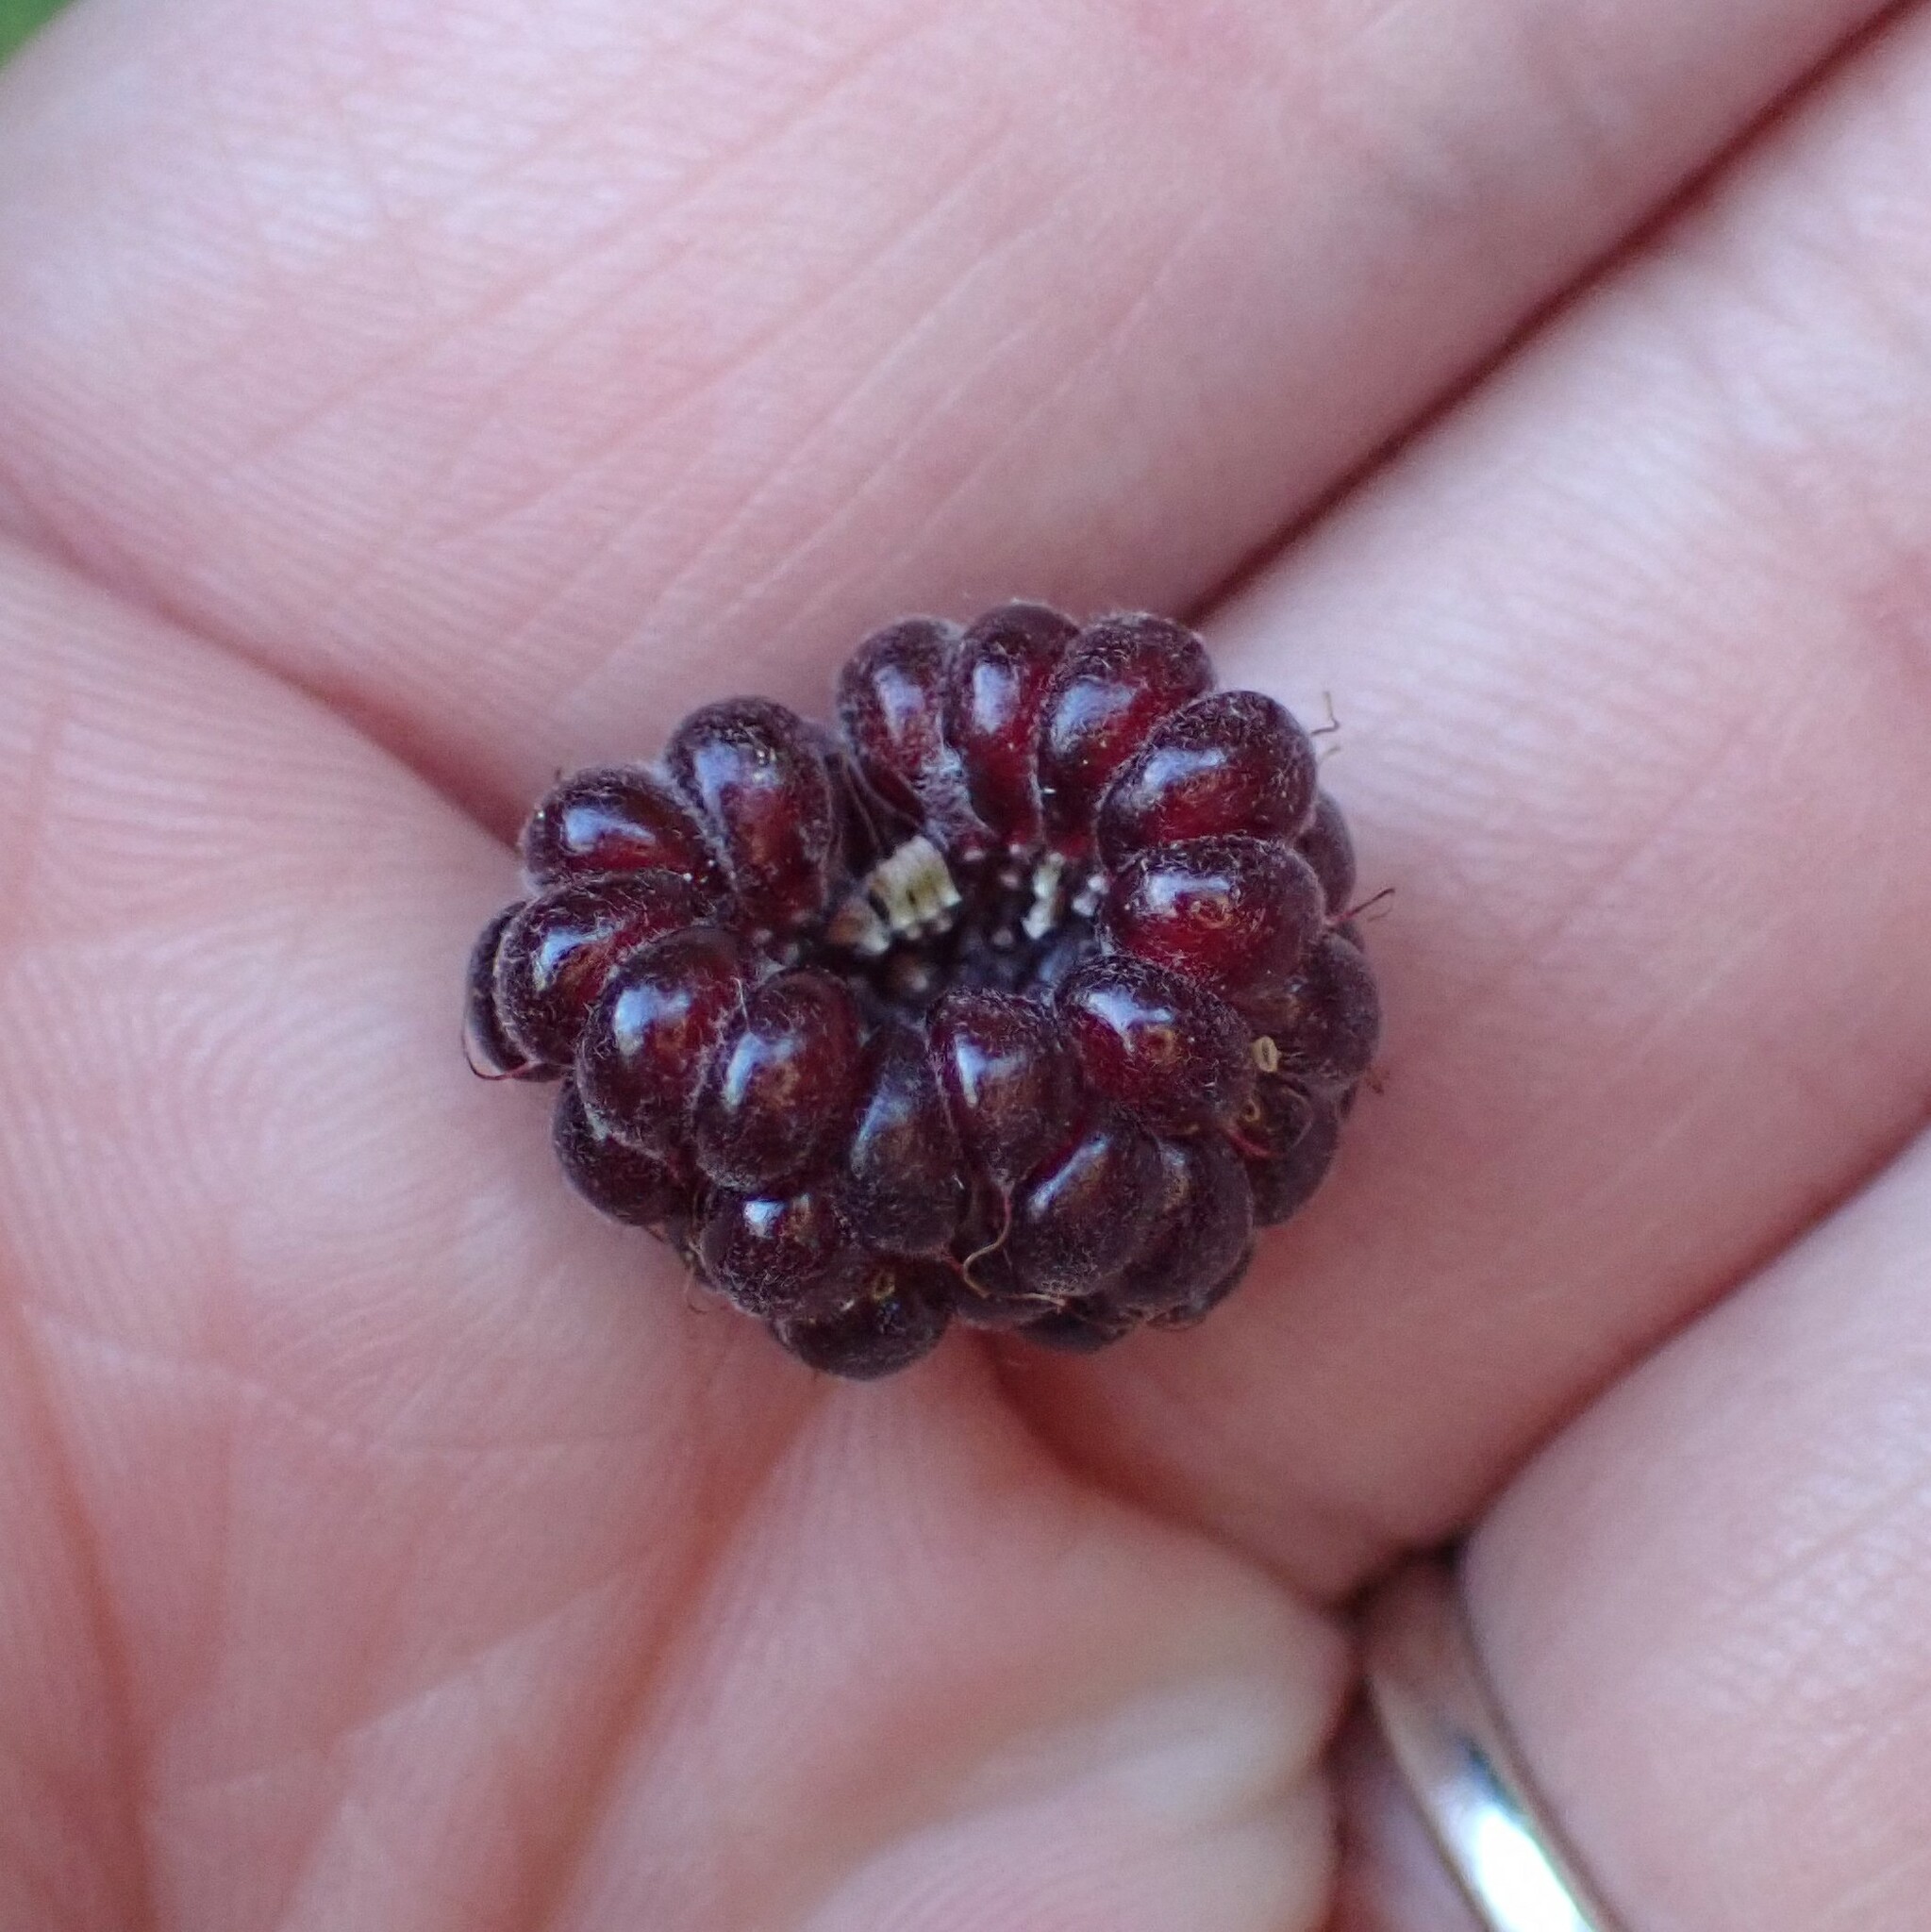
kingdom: Plantae
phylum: Tracheophyta
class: Magnoliopsida
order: Rosales
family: Rosaceae
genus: Rubus
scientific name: Rubus leucodermis
